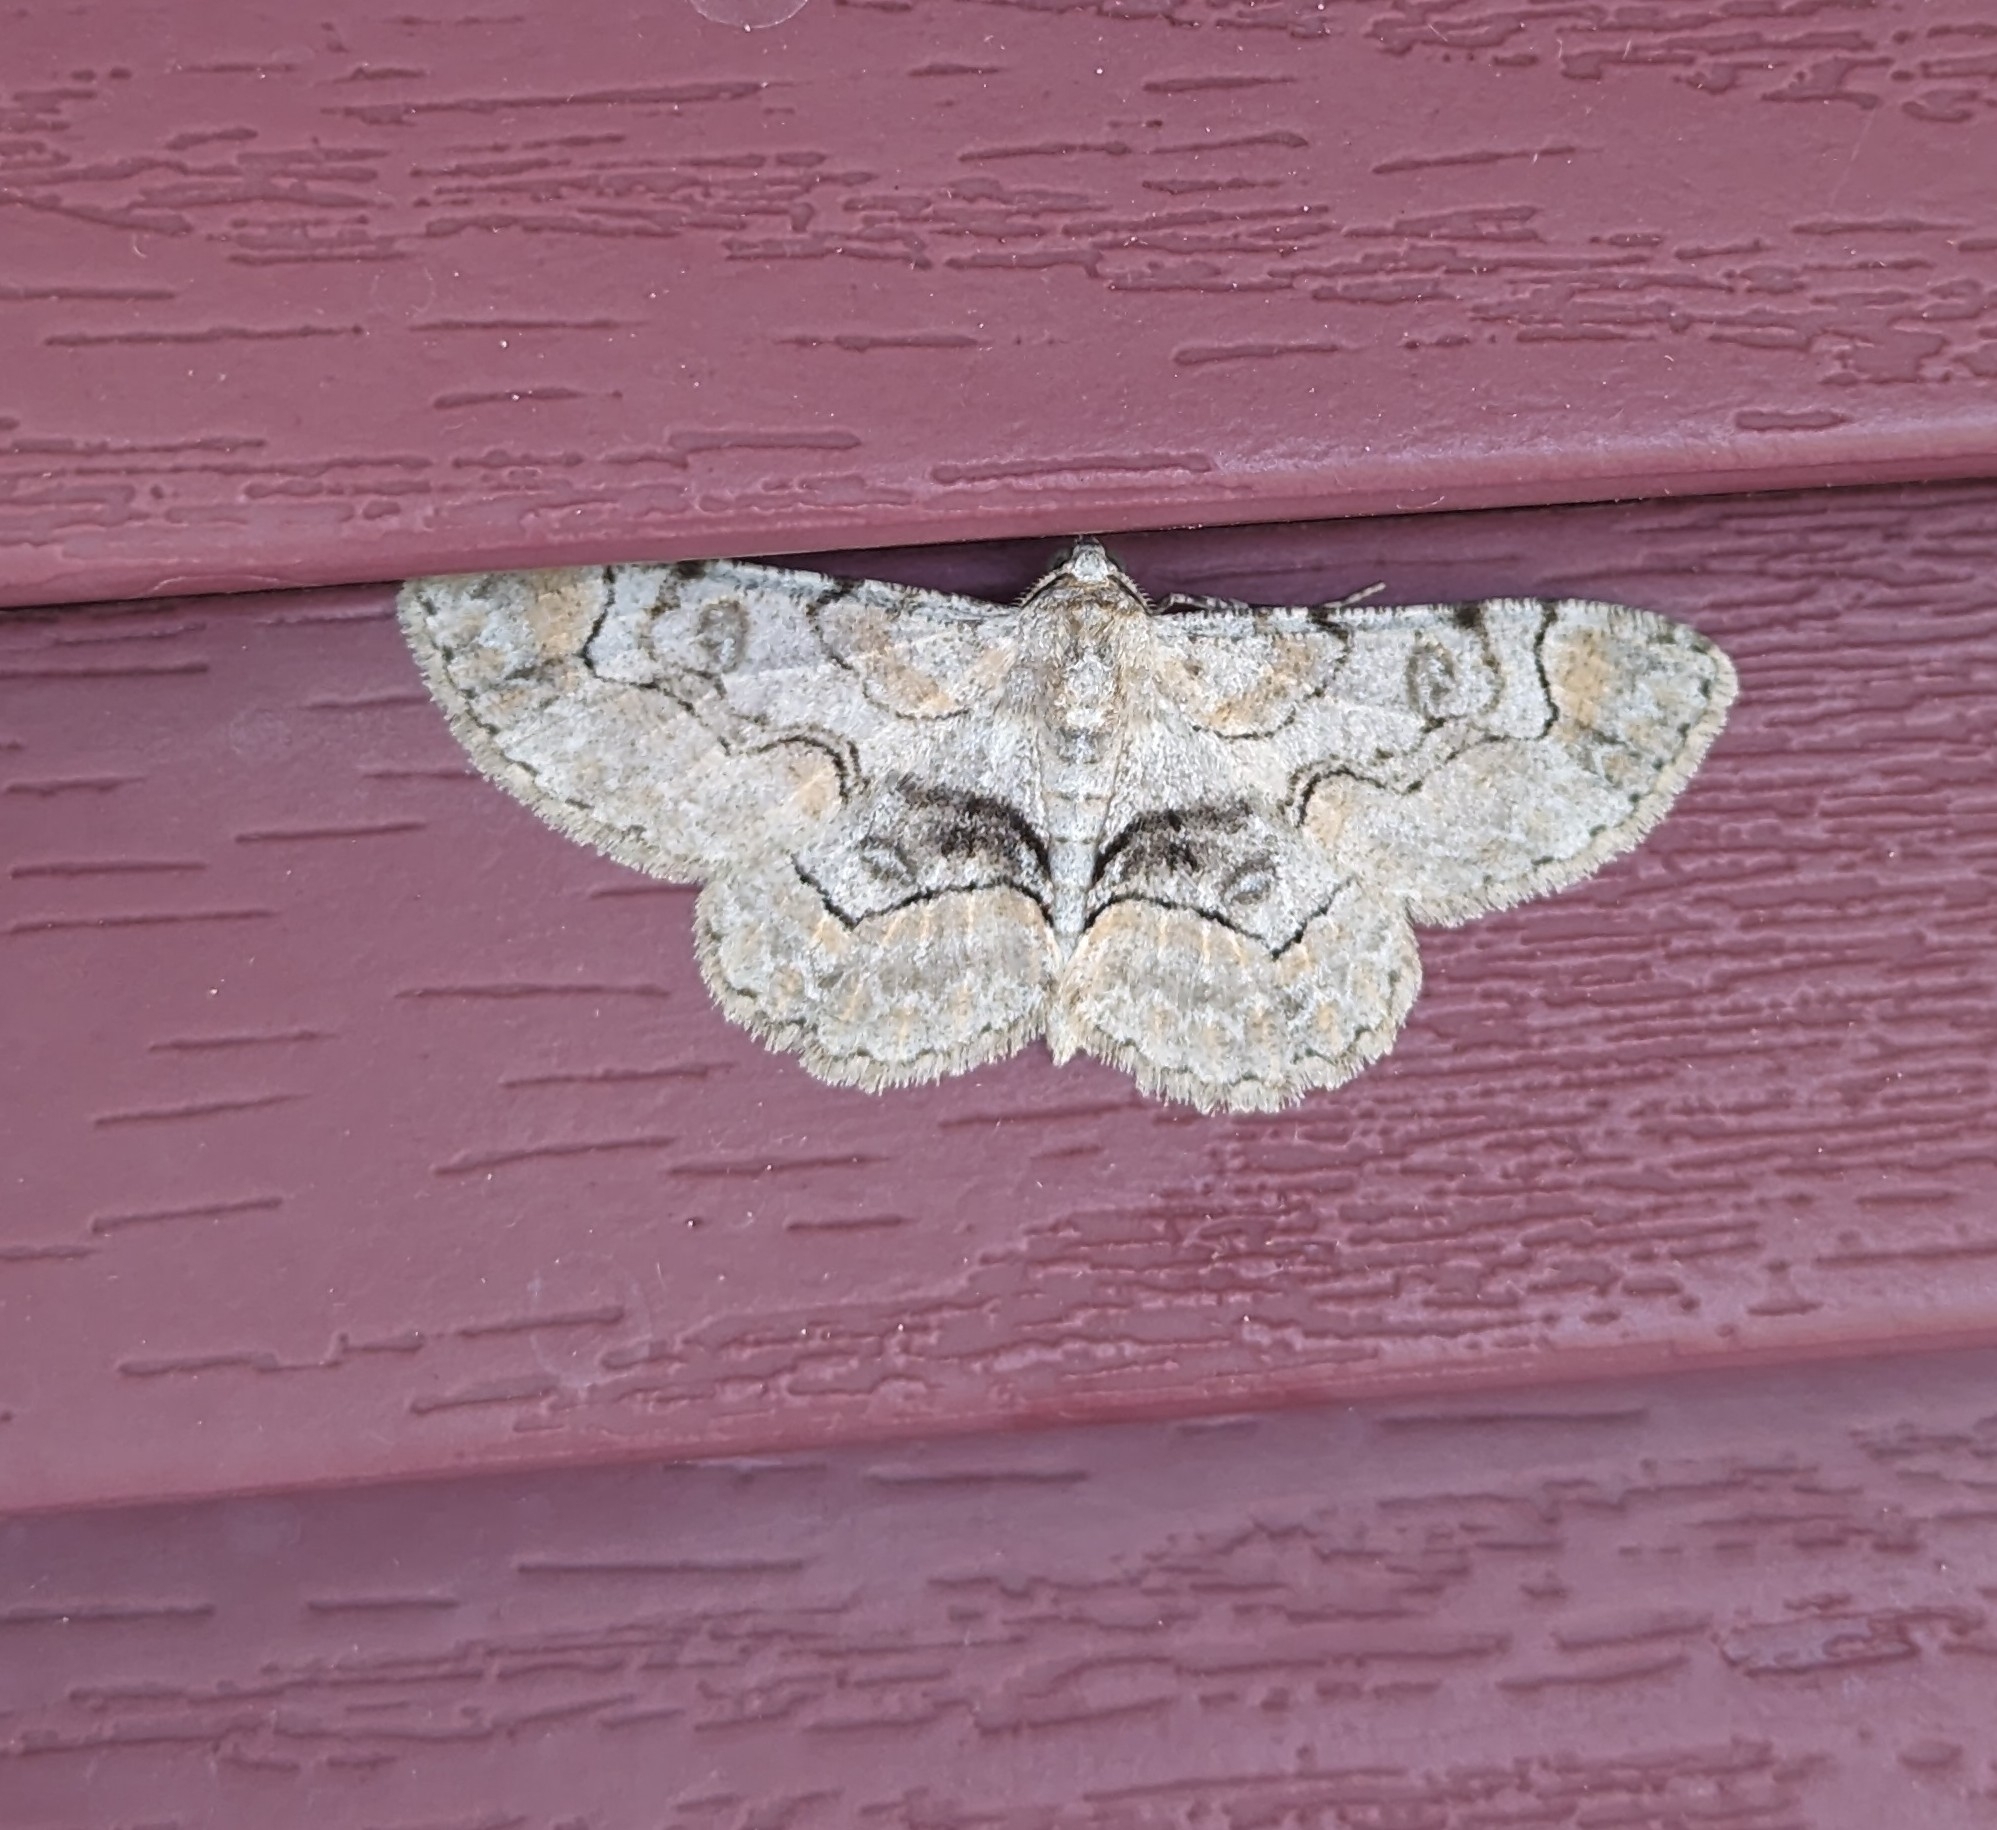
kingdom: Animalia
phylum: Arthropoda
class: Insecta
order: Lepidoptera
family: Geometridae
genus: Iridopsis
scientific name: Iridopsis larvaria
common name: Bent-line gray
